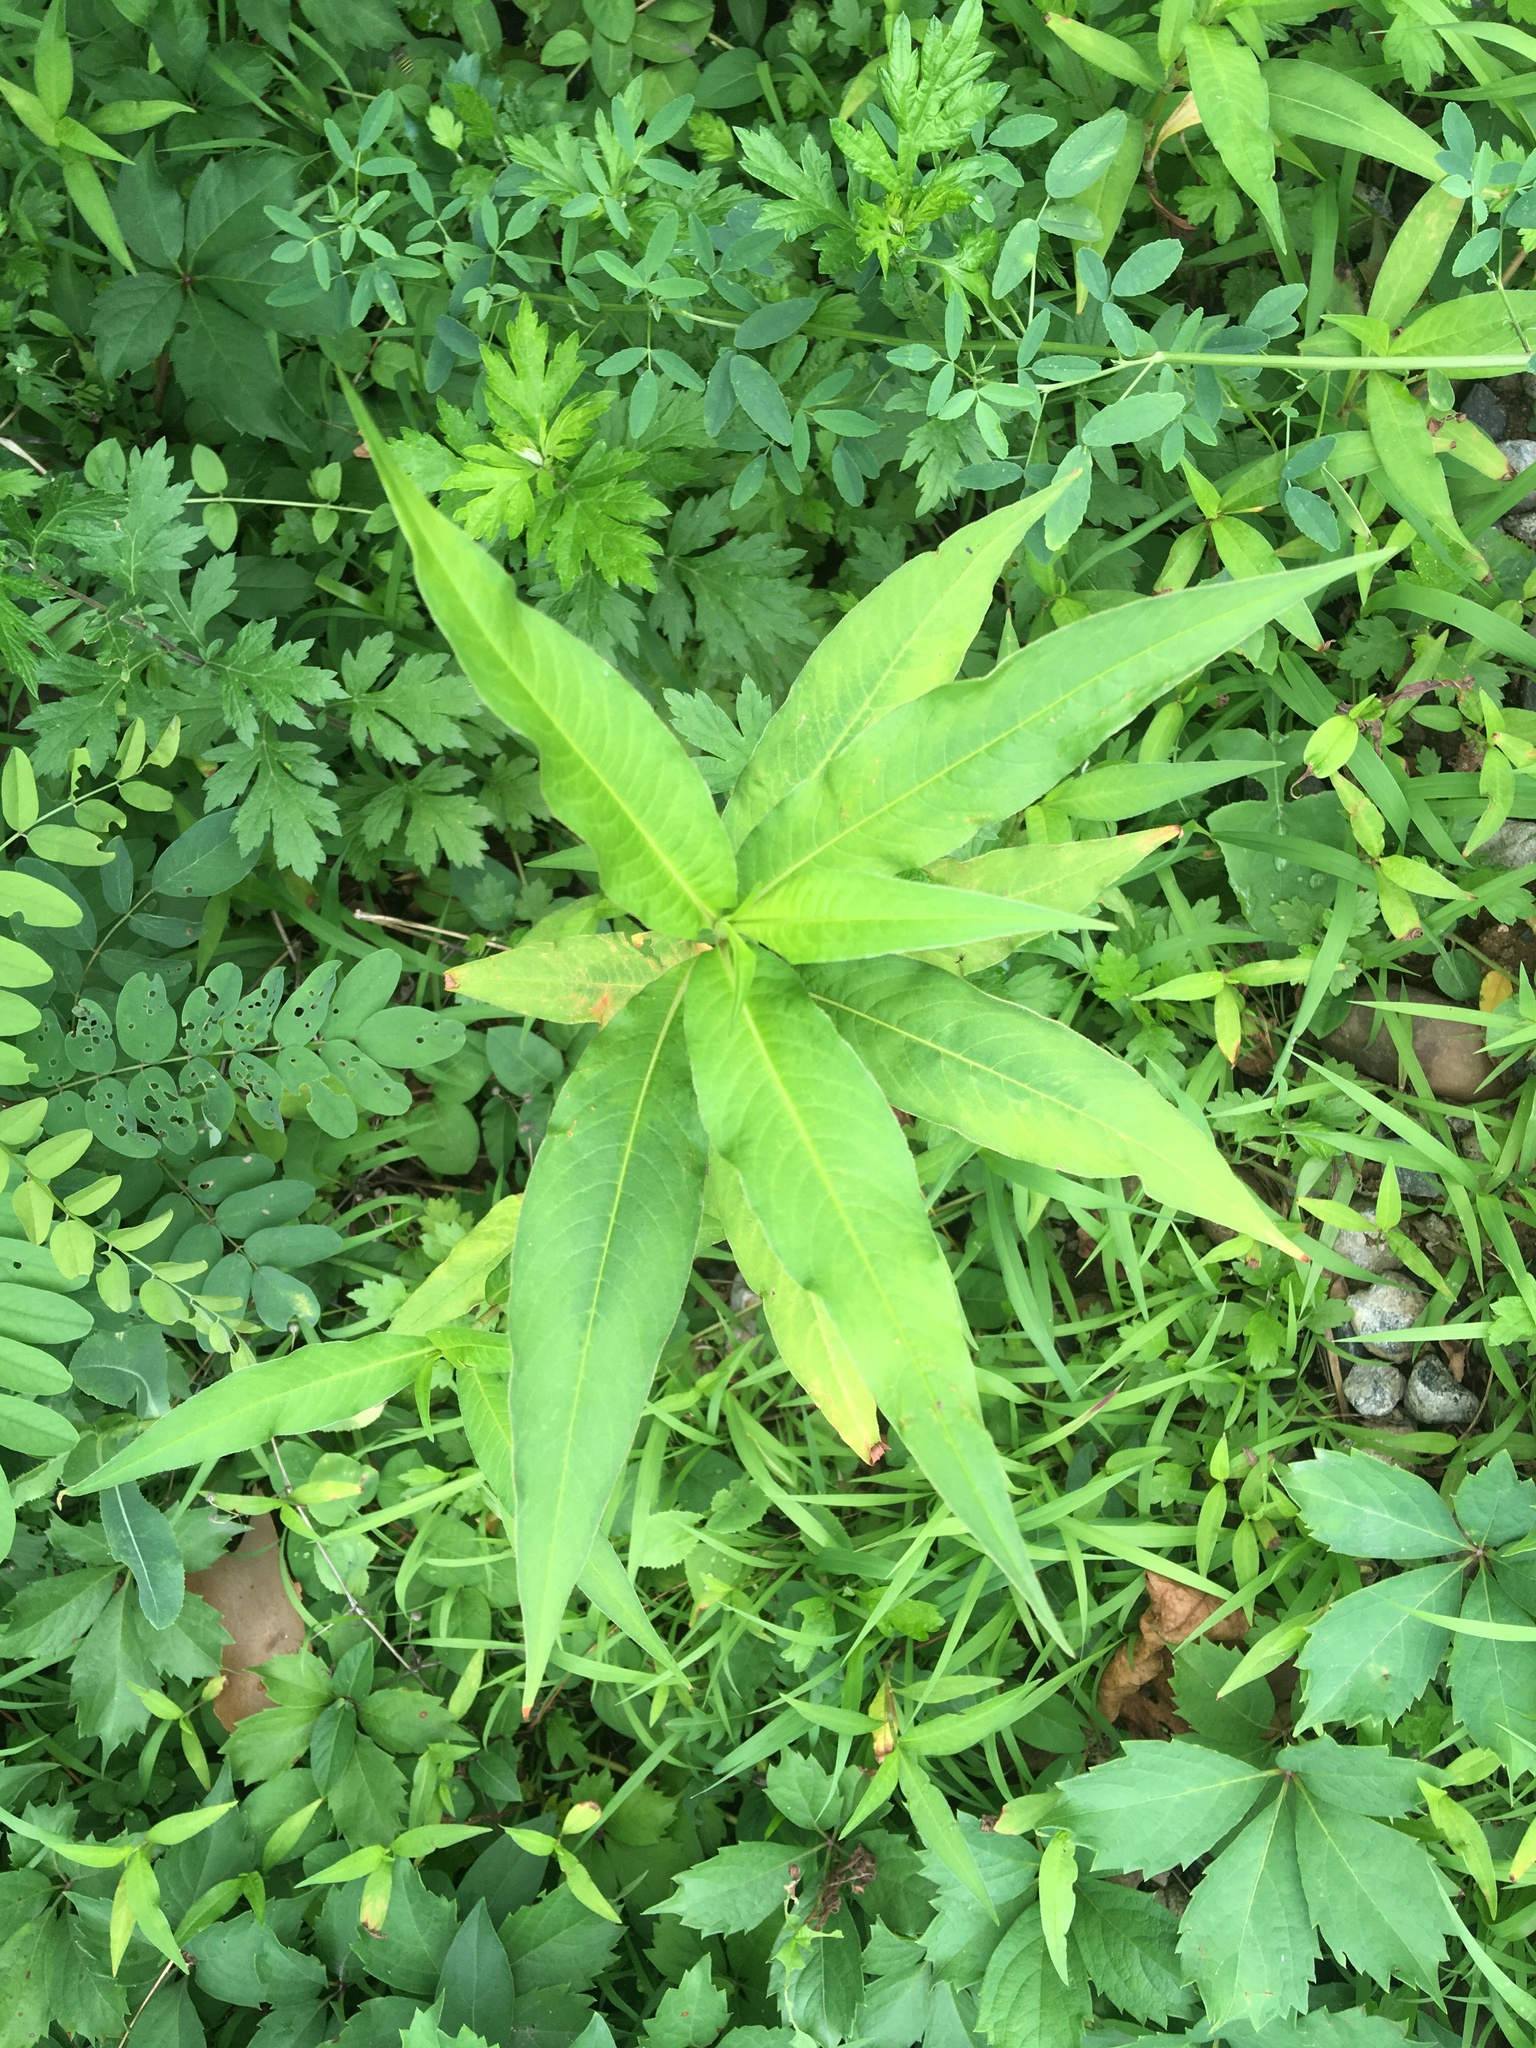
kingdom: Plantae
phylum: Tracheophyta
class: Magnoliopsida
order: Caryophyllales
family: Polygonaceae
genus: Persicaria
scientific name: Persicaria extremiorientalis
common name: Far-eastern smartweed
